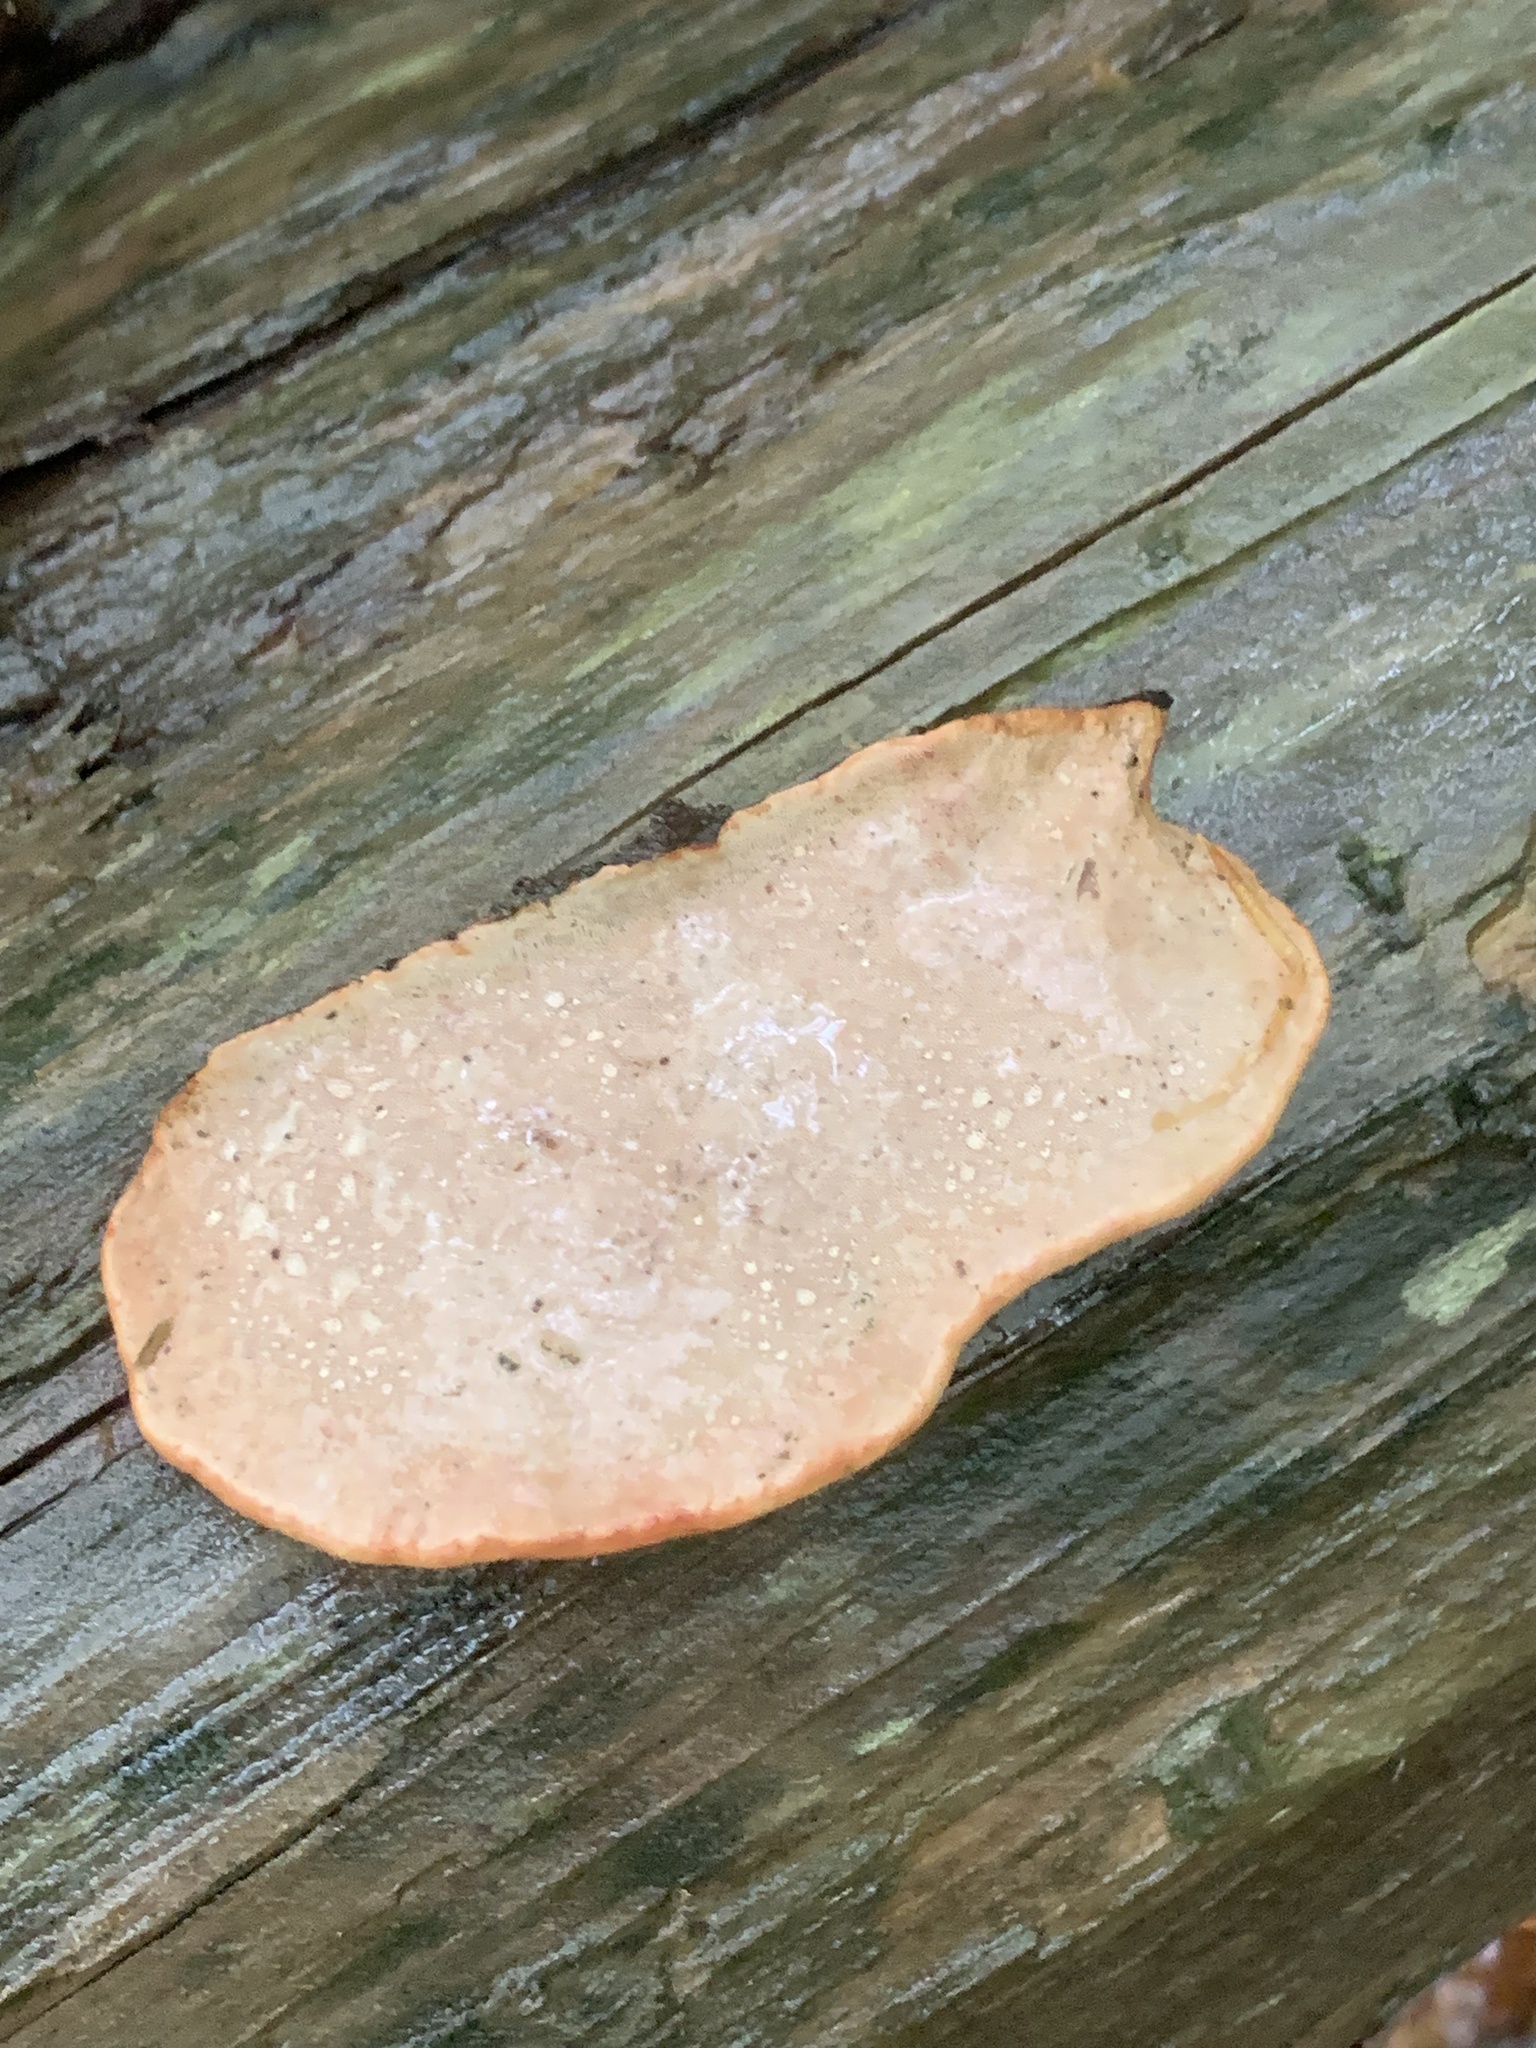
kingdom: Fungi
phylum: Basidiomycota
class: Agaricomycetes
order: Polyporales
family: Fomitopsidaceae
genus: Rhodofomes
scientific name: Rhodofomes cajanderi
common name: Rosy conk
